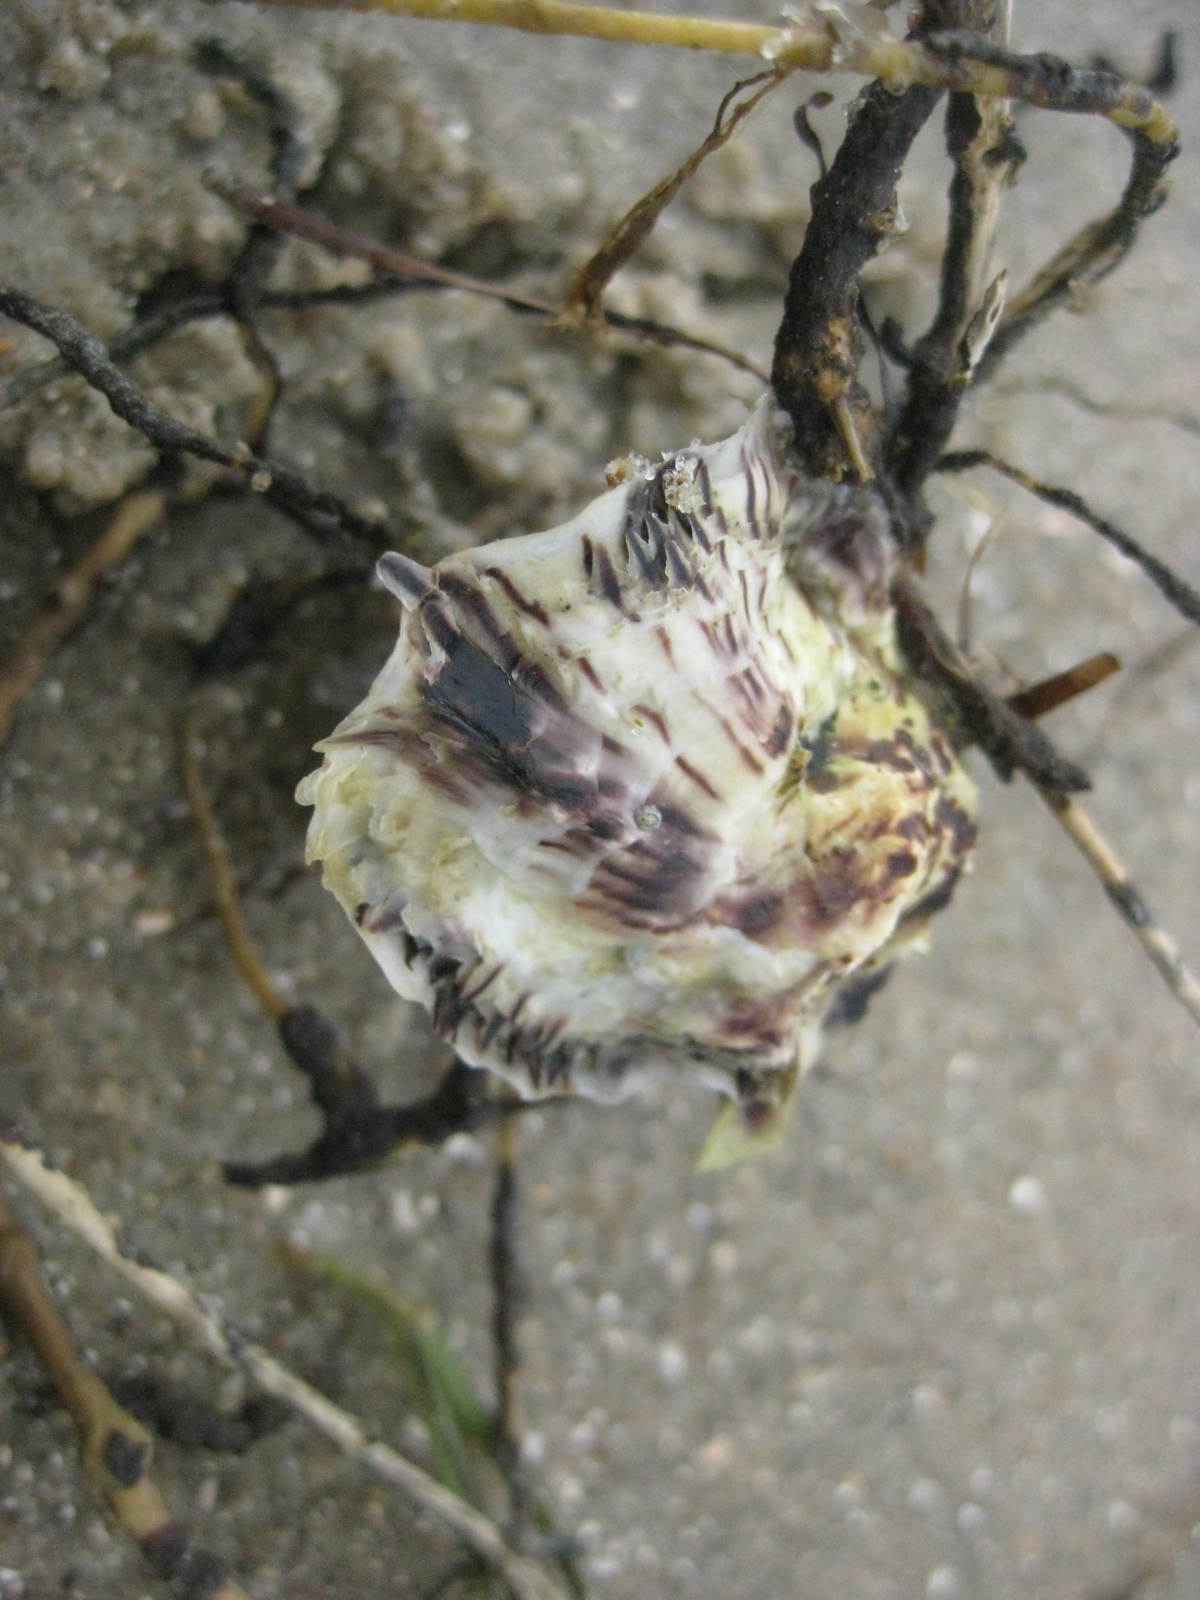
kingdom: Animalia
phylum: Mollusca
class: Bivalvia
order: Ostreida
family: Ostreidae
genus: Magallana
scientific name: Magallana gigas
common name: Pacific oyster
